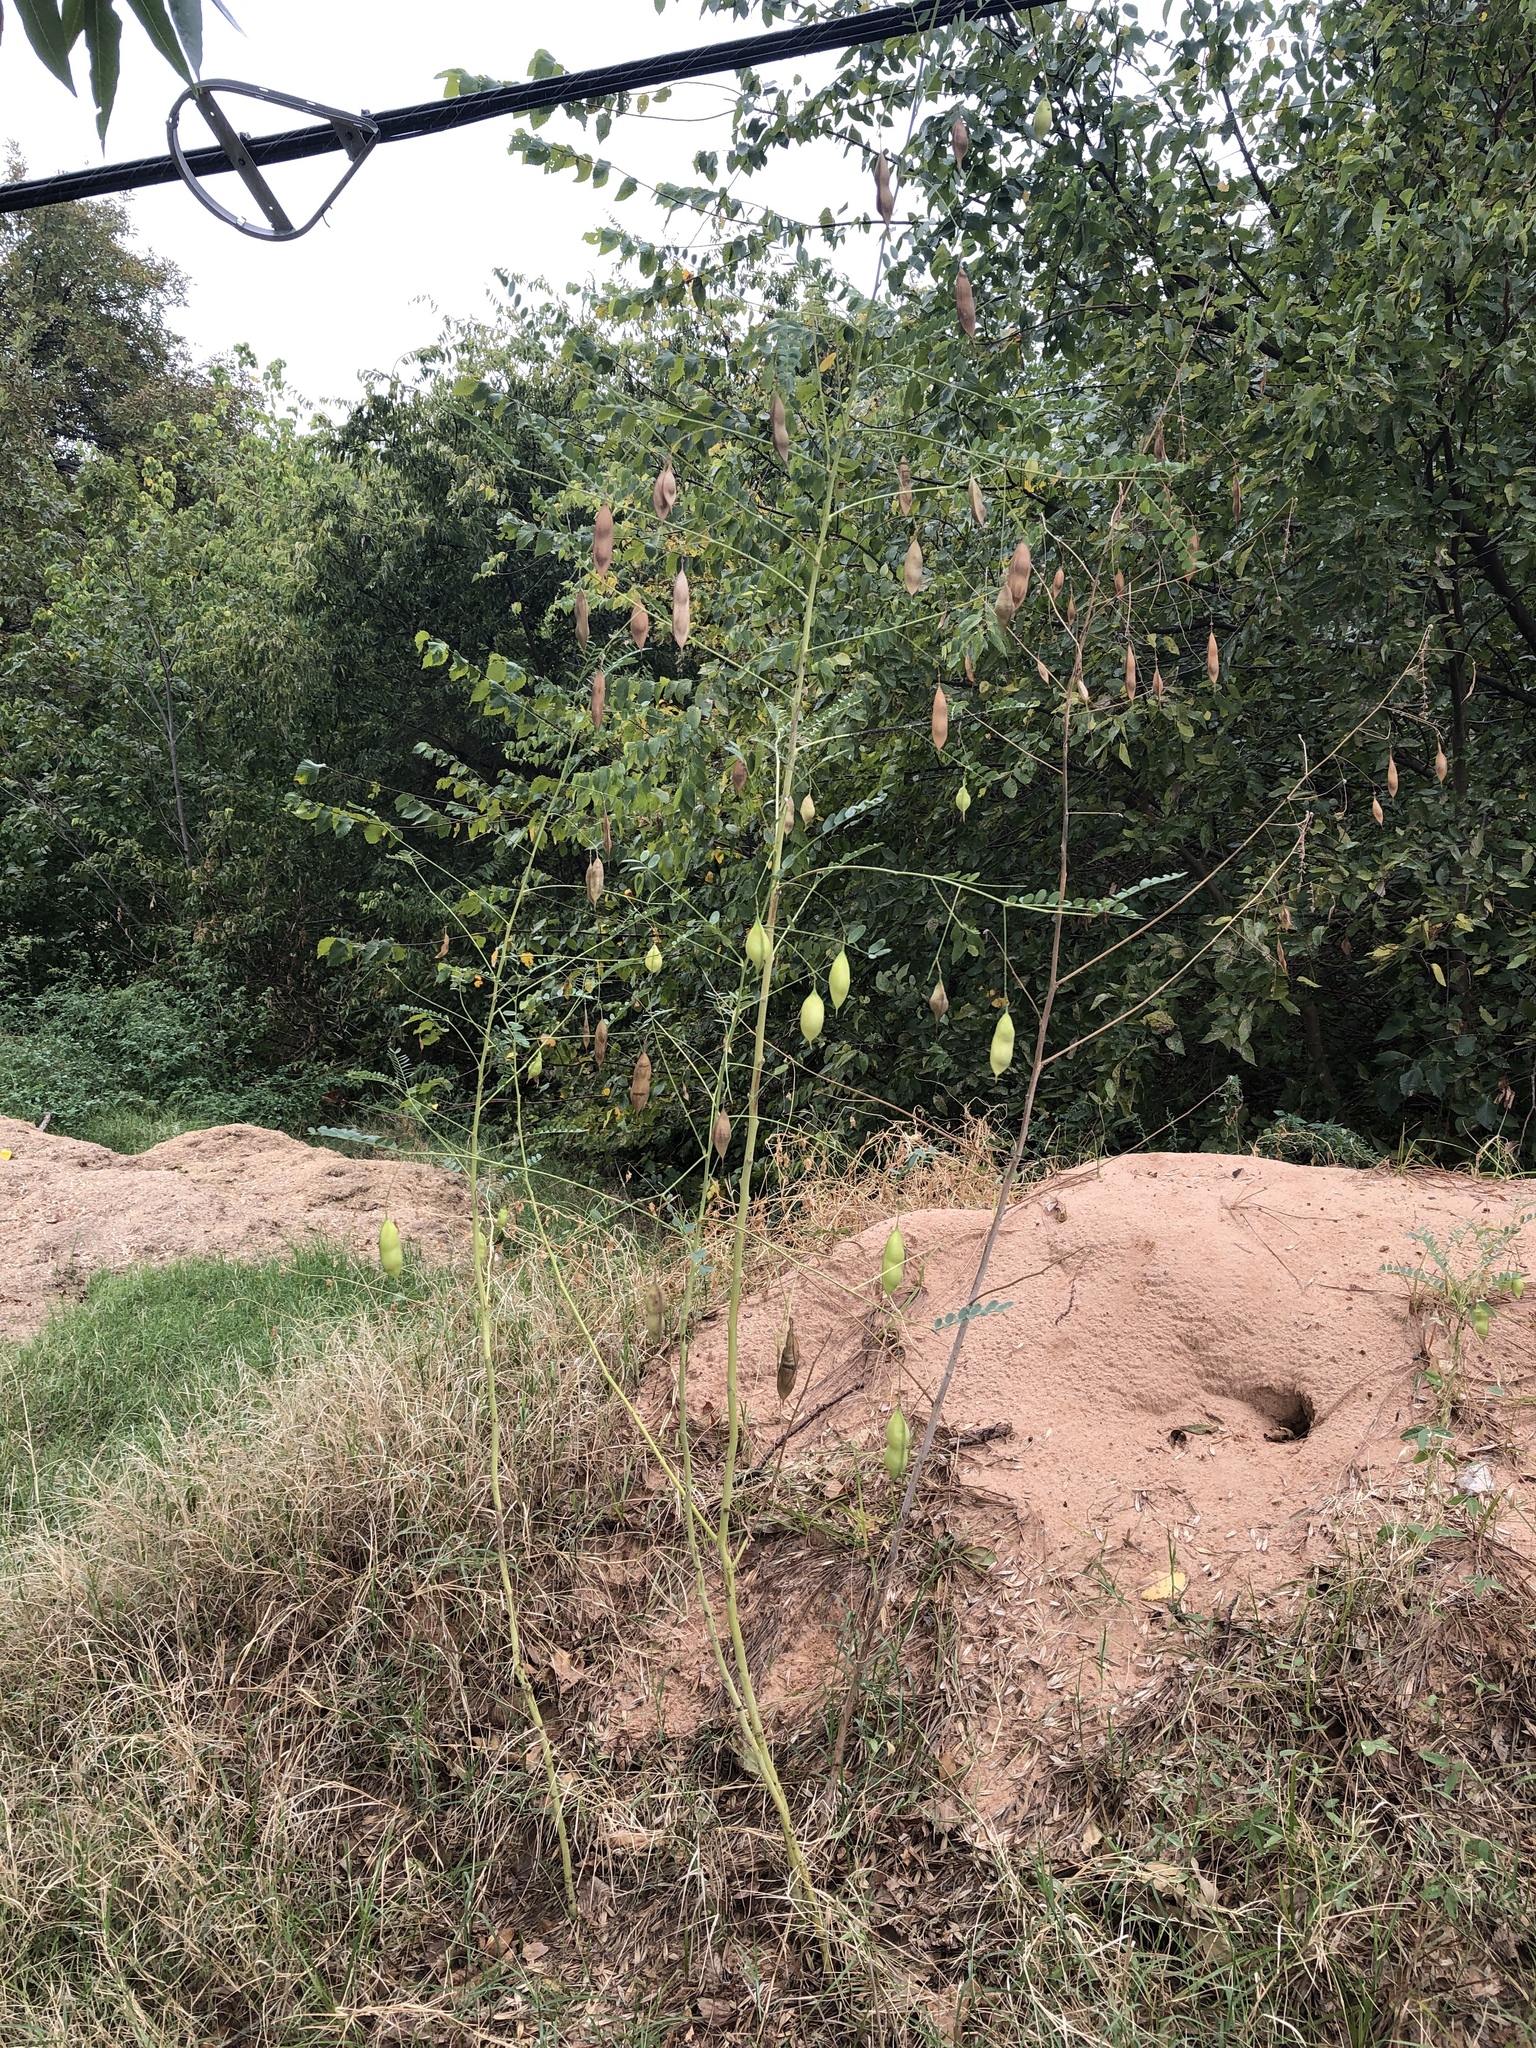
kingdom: Plantae
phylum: Tracheophyta
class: Magnoliopsida
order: Fabales
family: Fabaceae
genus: Sesbania
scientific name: Sesbania vesicaria
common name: Bagpod
